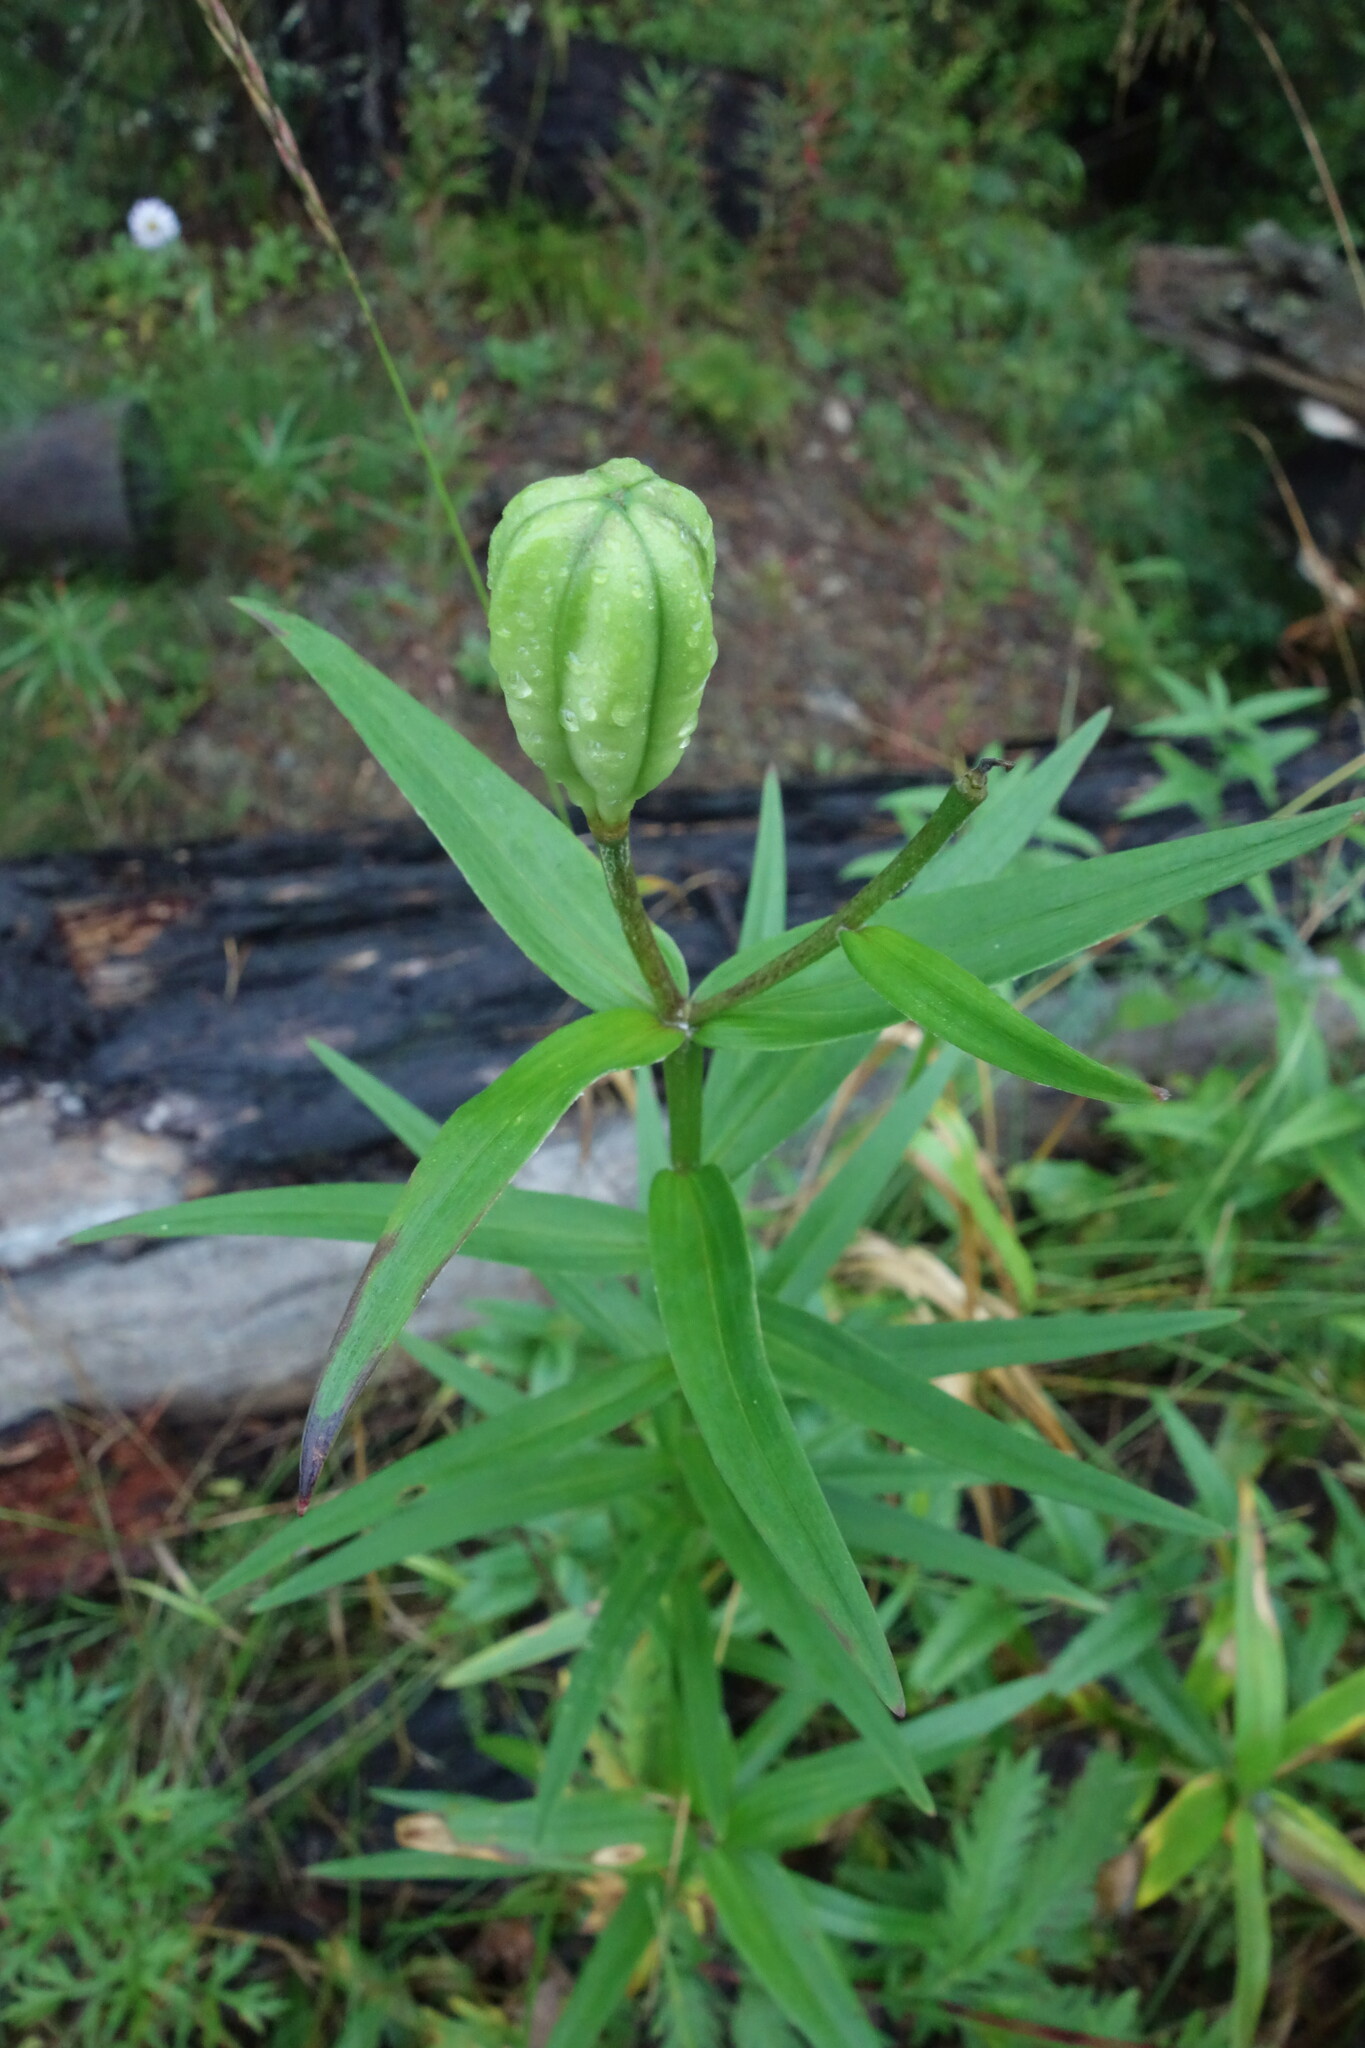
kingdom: Plantae
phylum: Tracheophyta
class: Liliopsida
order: Liliales
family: Liliaceae
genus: Lilium
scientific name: Lilium pensylvanicum
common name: Candlestick lily
